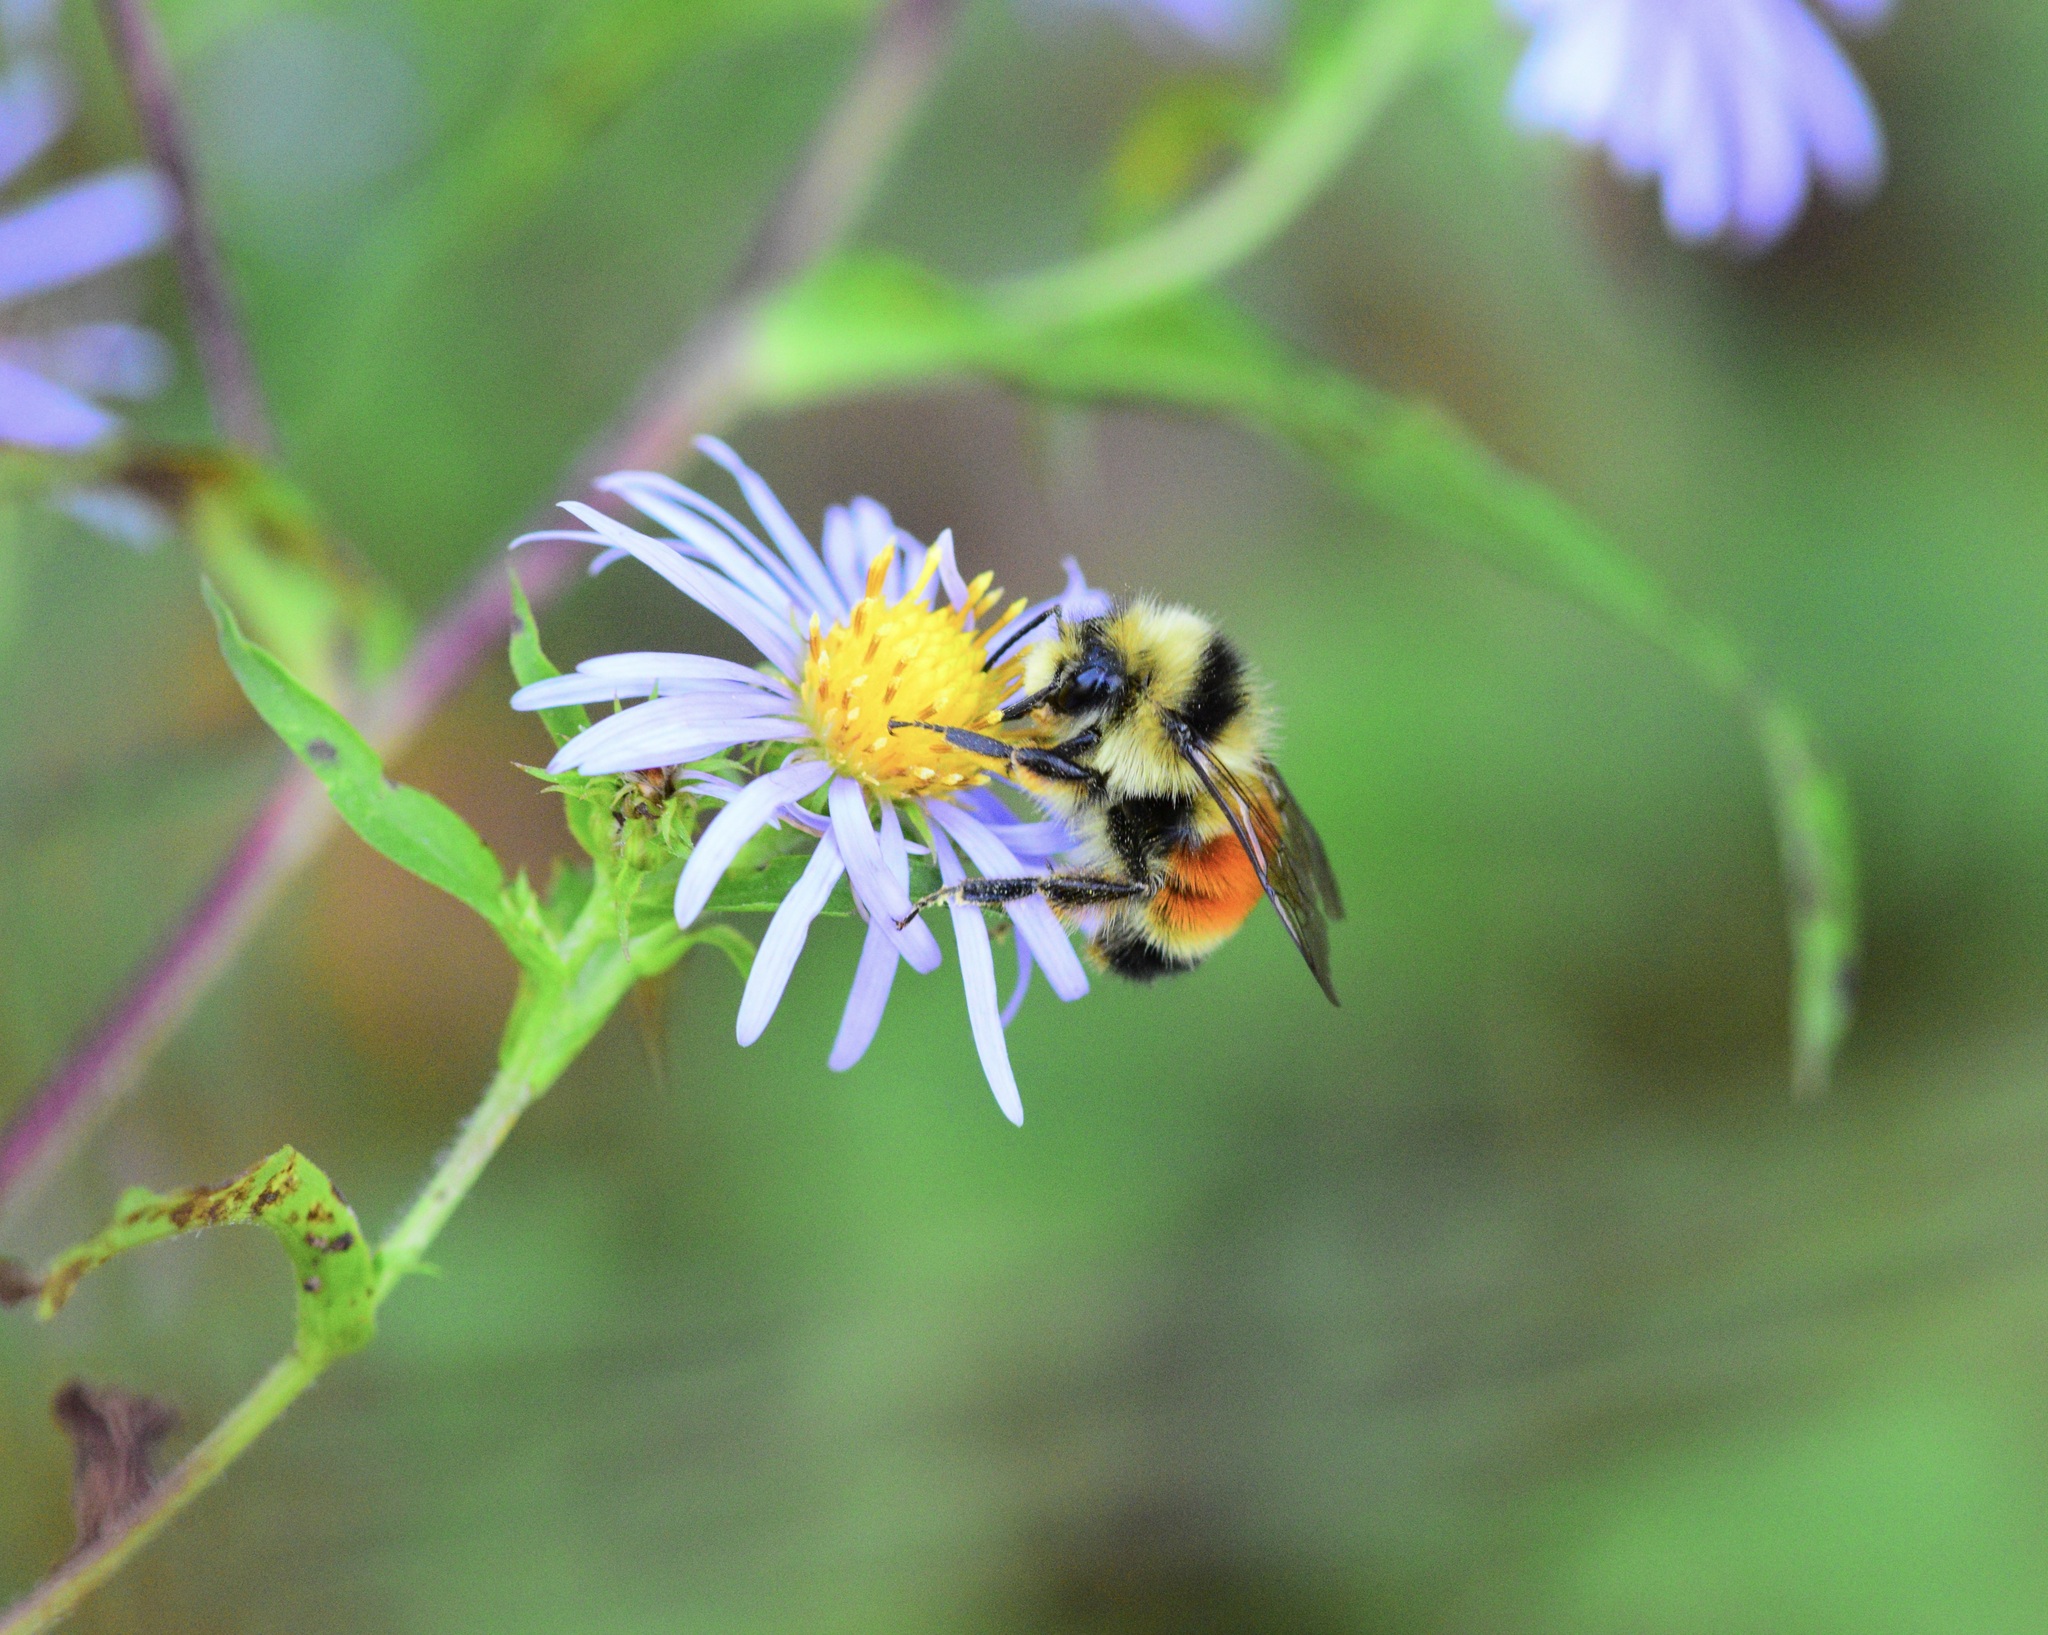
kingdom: Animalia
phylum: Arthropoda
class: Insecta
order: Hymenoptera
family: Apidae
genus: Bombus
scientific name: Bombus ternarius
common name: Tri-colored bumble bee
